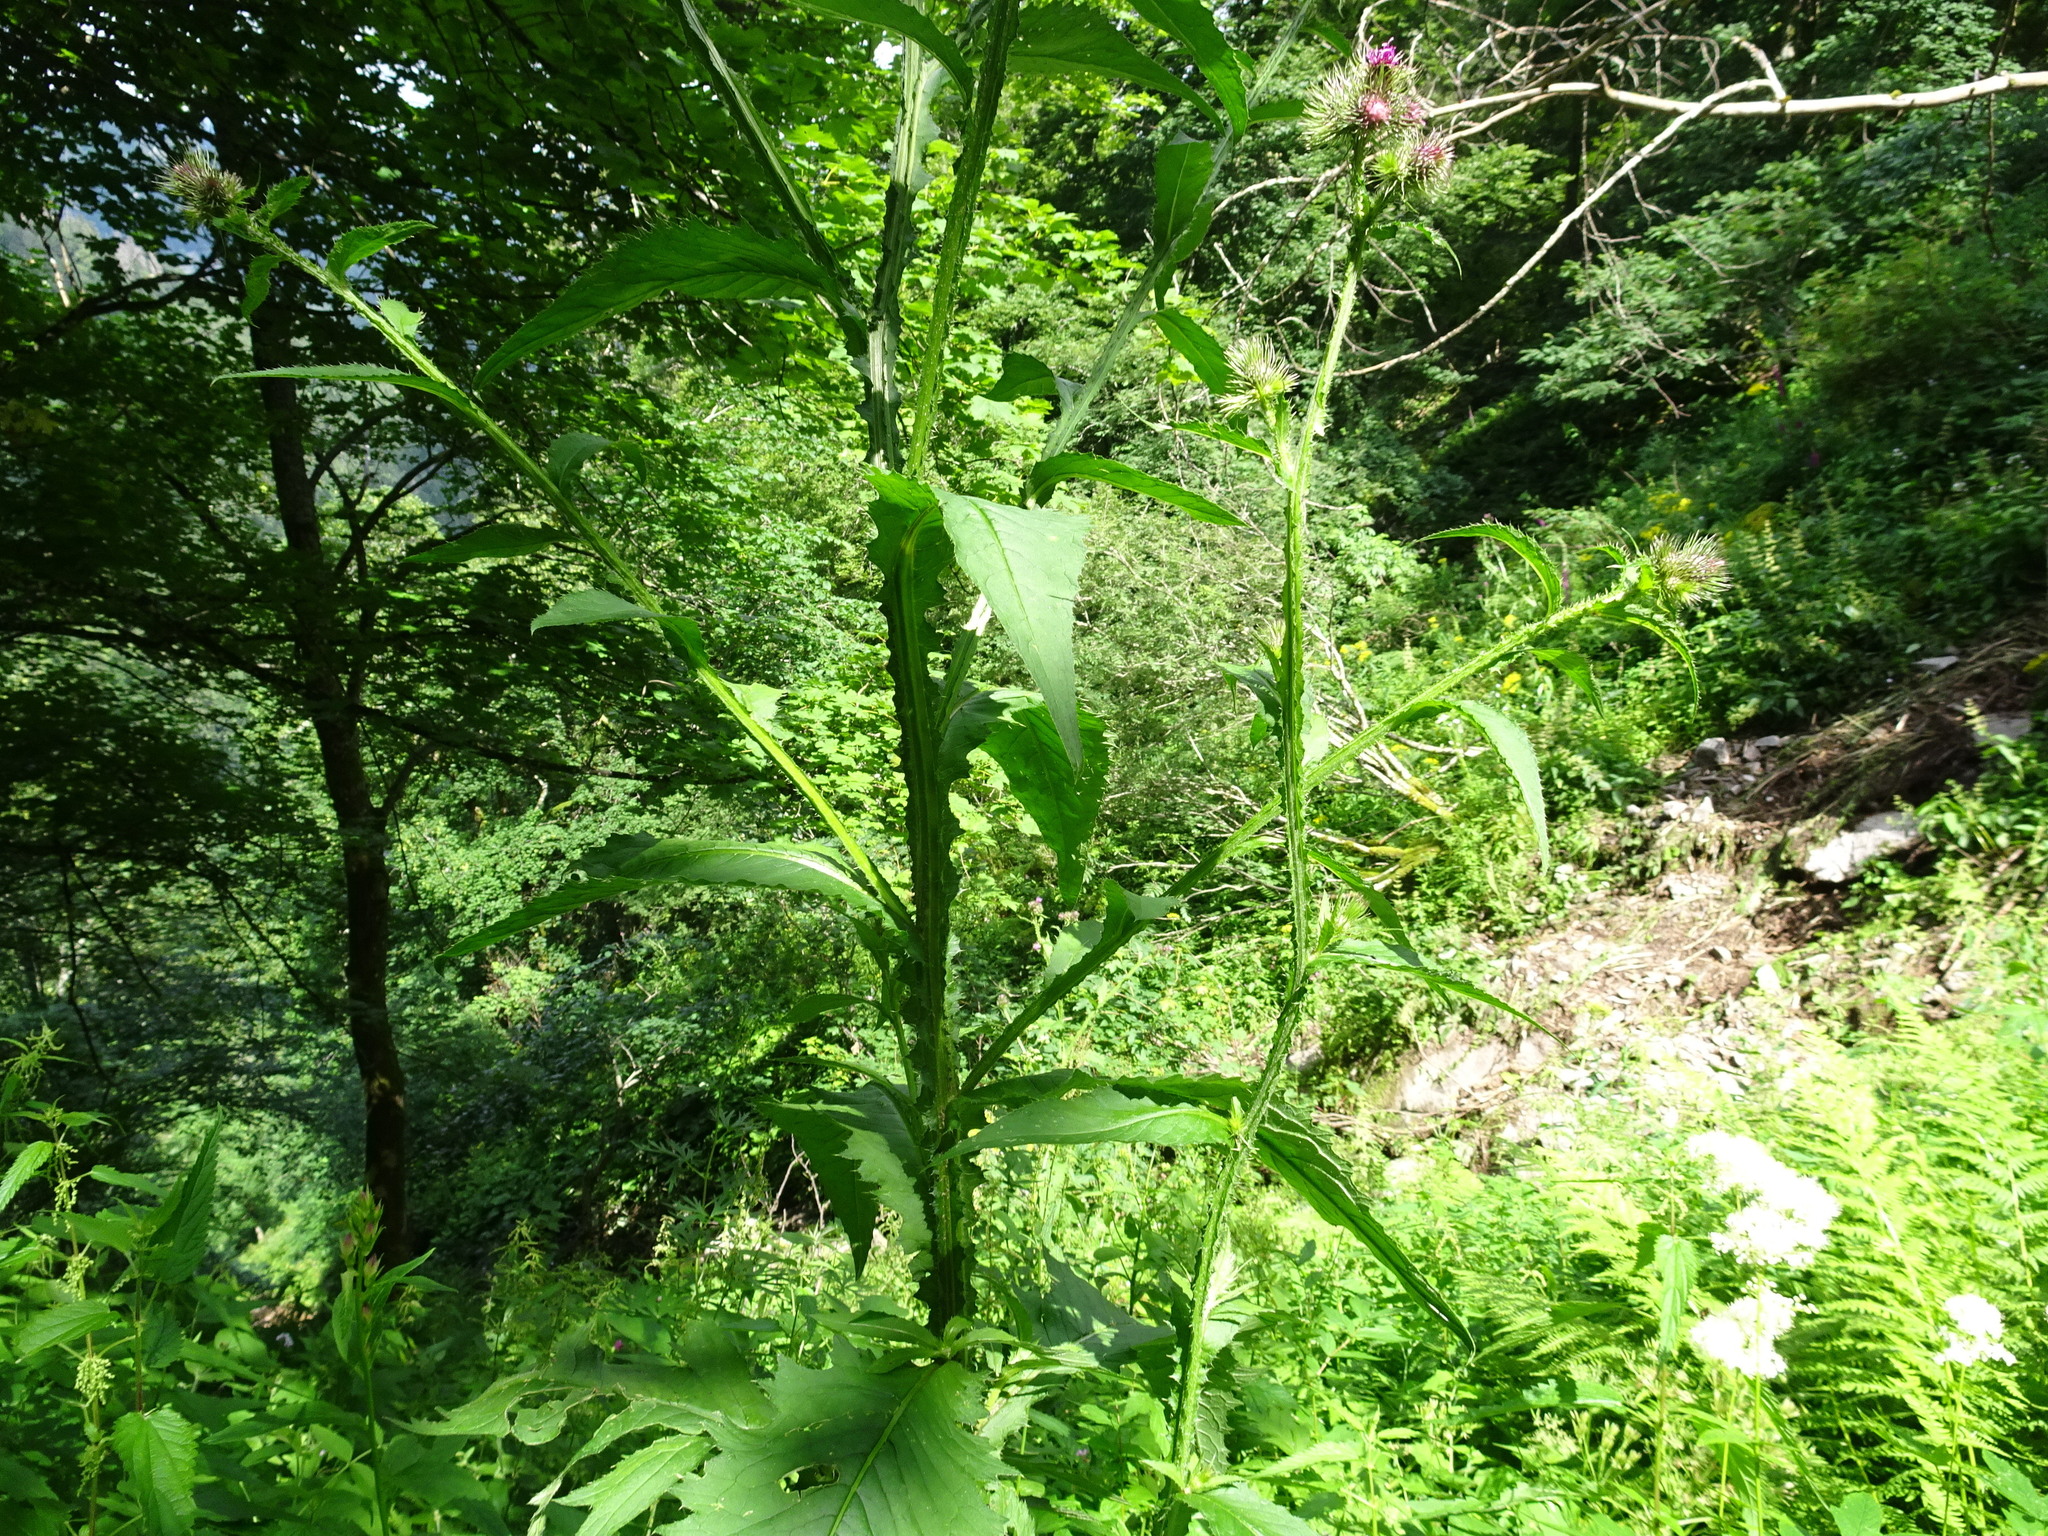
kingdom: Plantae
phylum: Tracheophyta
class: Magnoliopsida
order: Asterales
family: Asteraceae
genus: Carduus
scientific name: Carduus crispus
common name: Welted thistle
